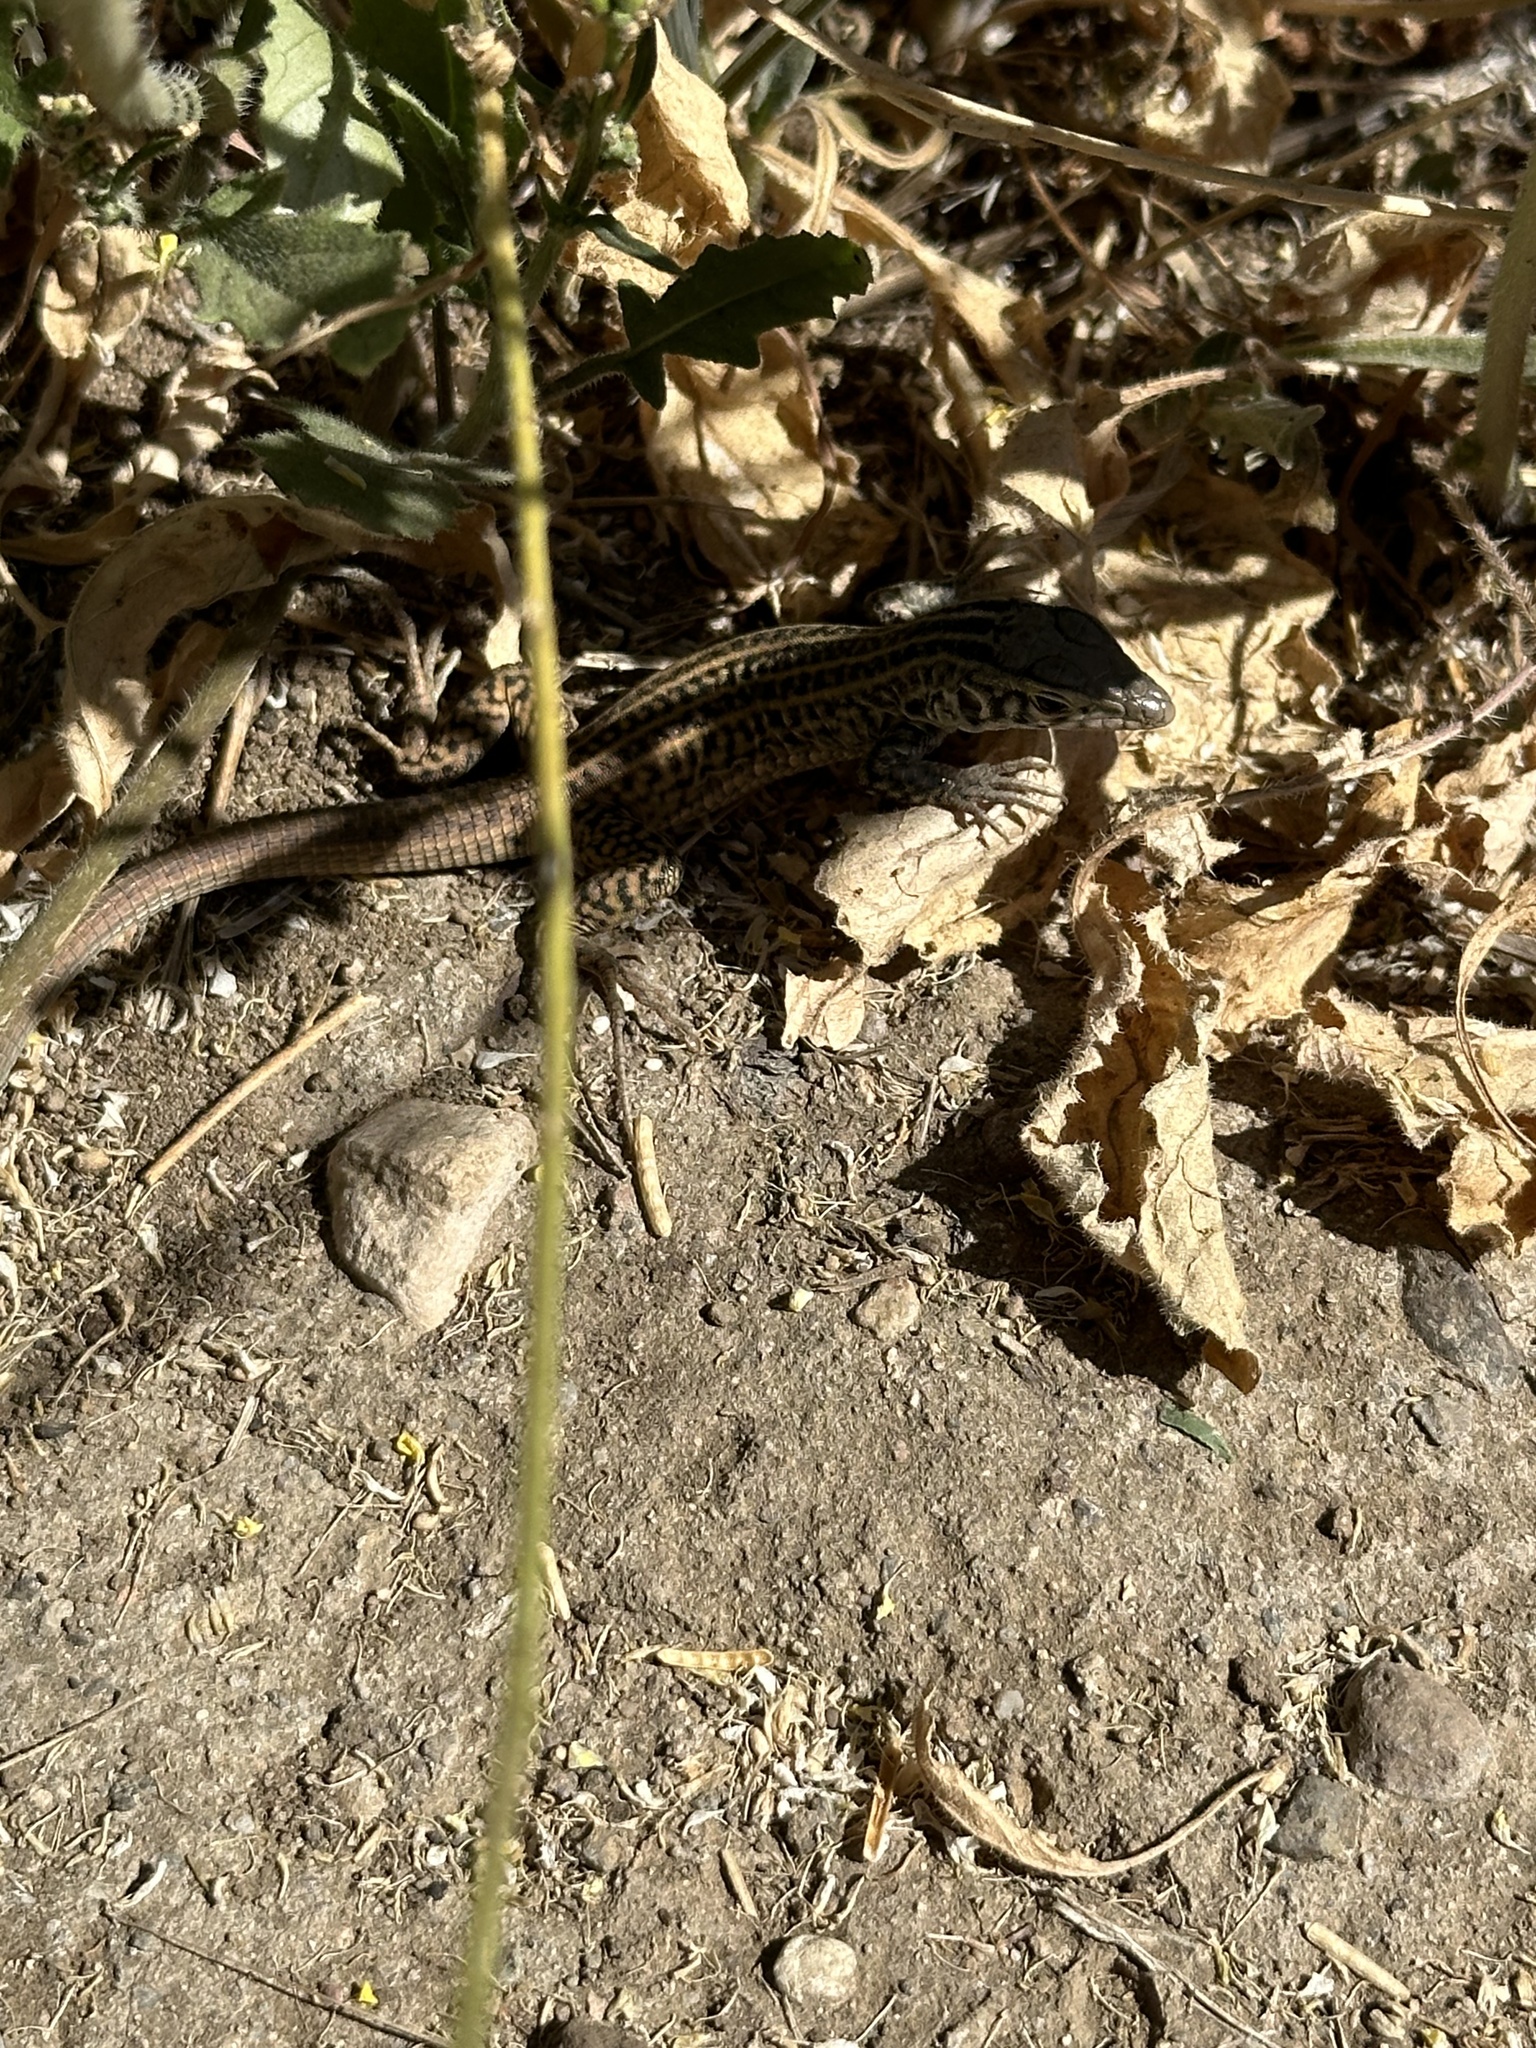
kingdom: Animalia
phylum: Chordata
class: Squamata
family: Teiidae
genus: Aspidoscelis
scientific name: Aspidoscelis tigris
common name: Tiger whiptail
